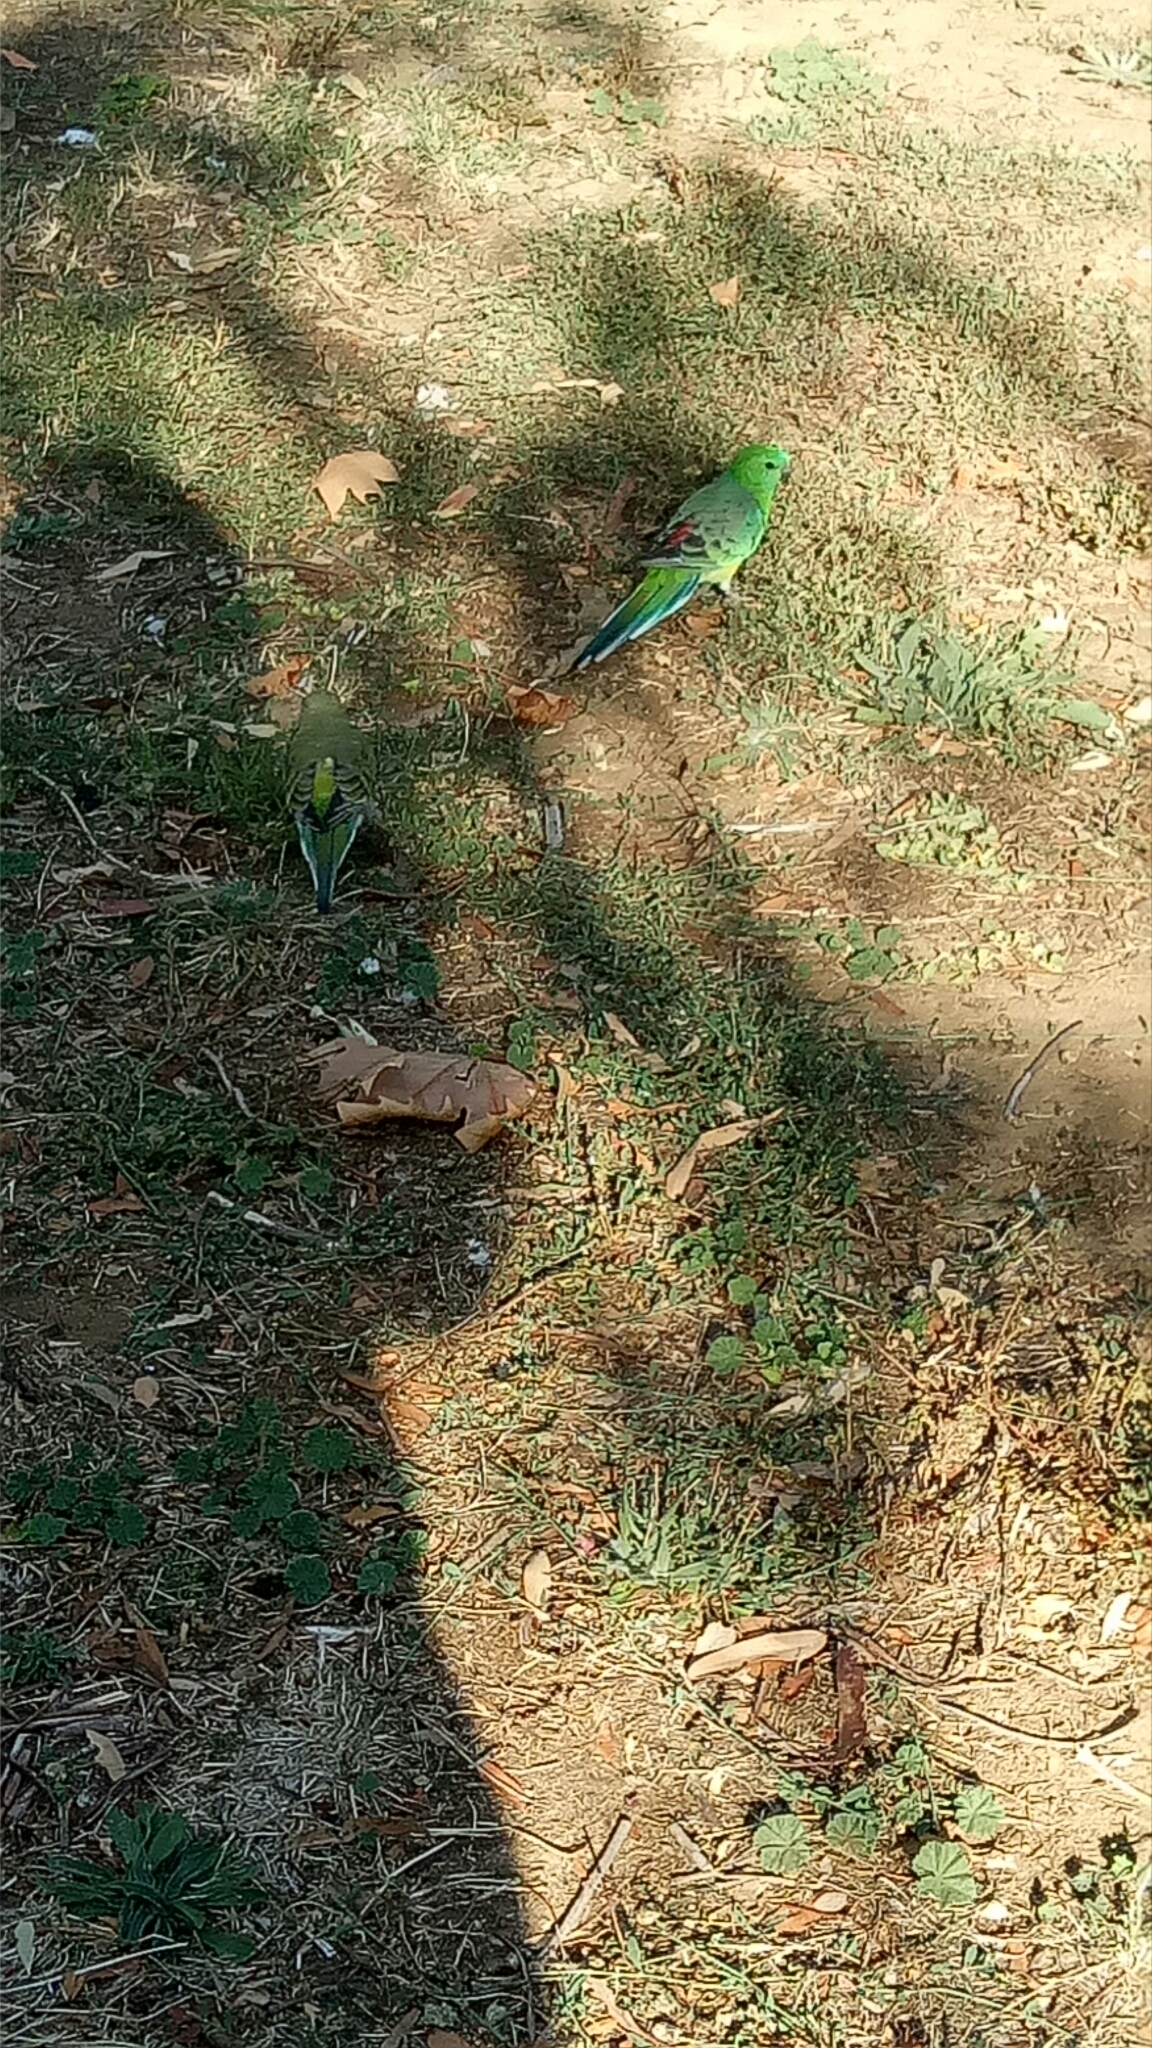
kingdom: Animalia
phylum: Chordata
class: Aves
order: Psittaciformes
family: Psittacidae
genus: Psephotus
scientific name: Psephotus haematonotus
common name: Red-rumped parrot
